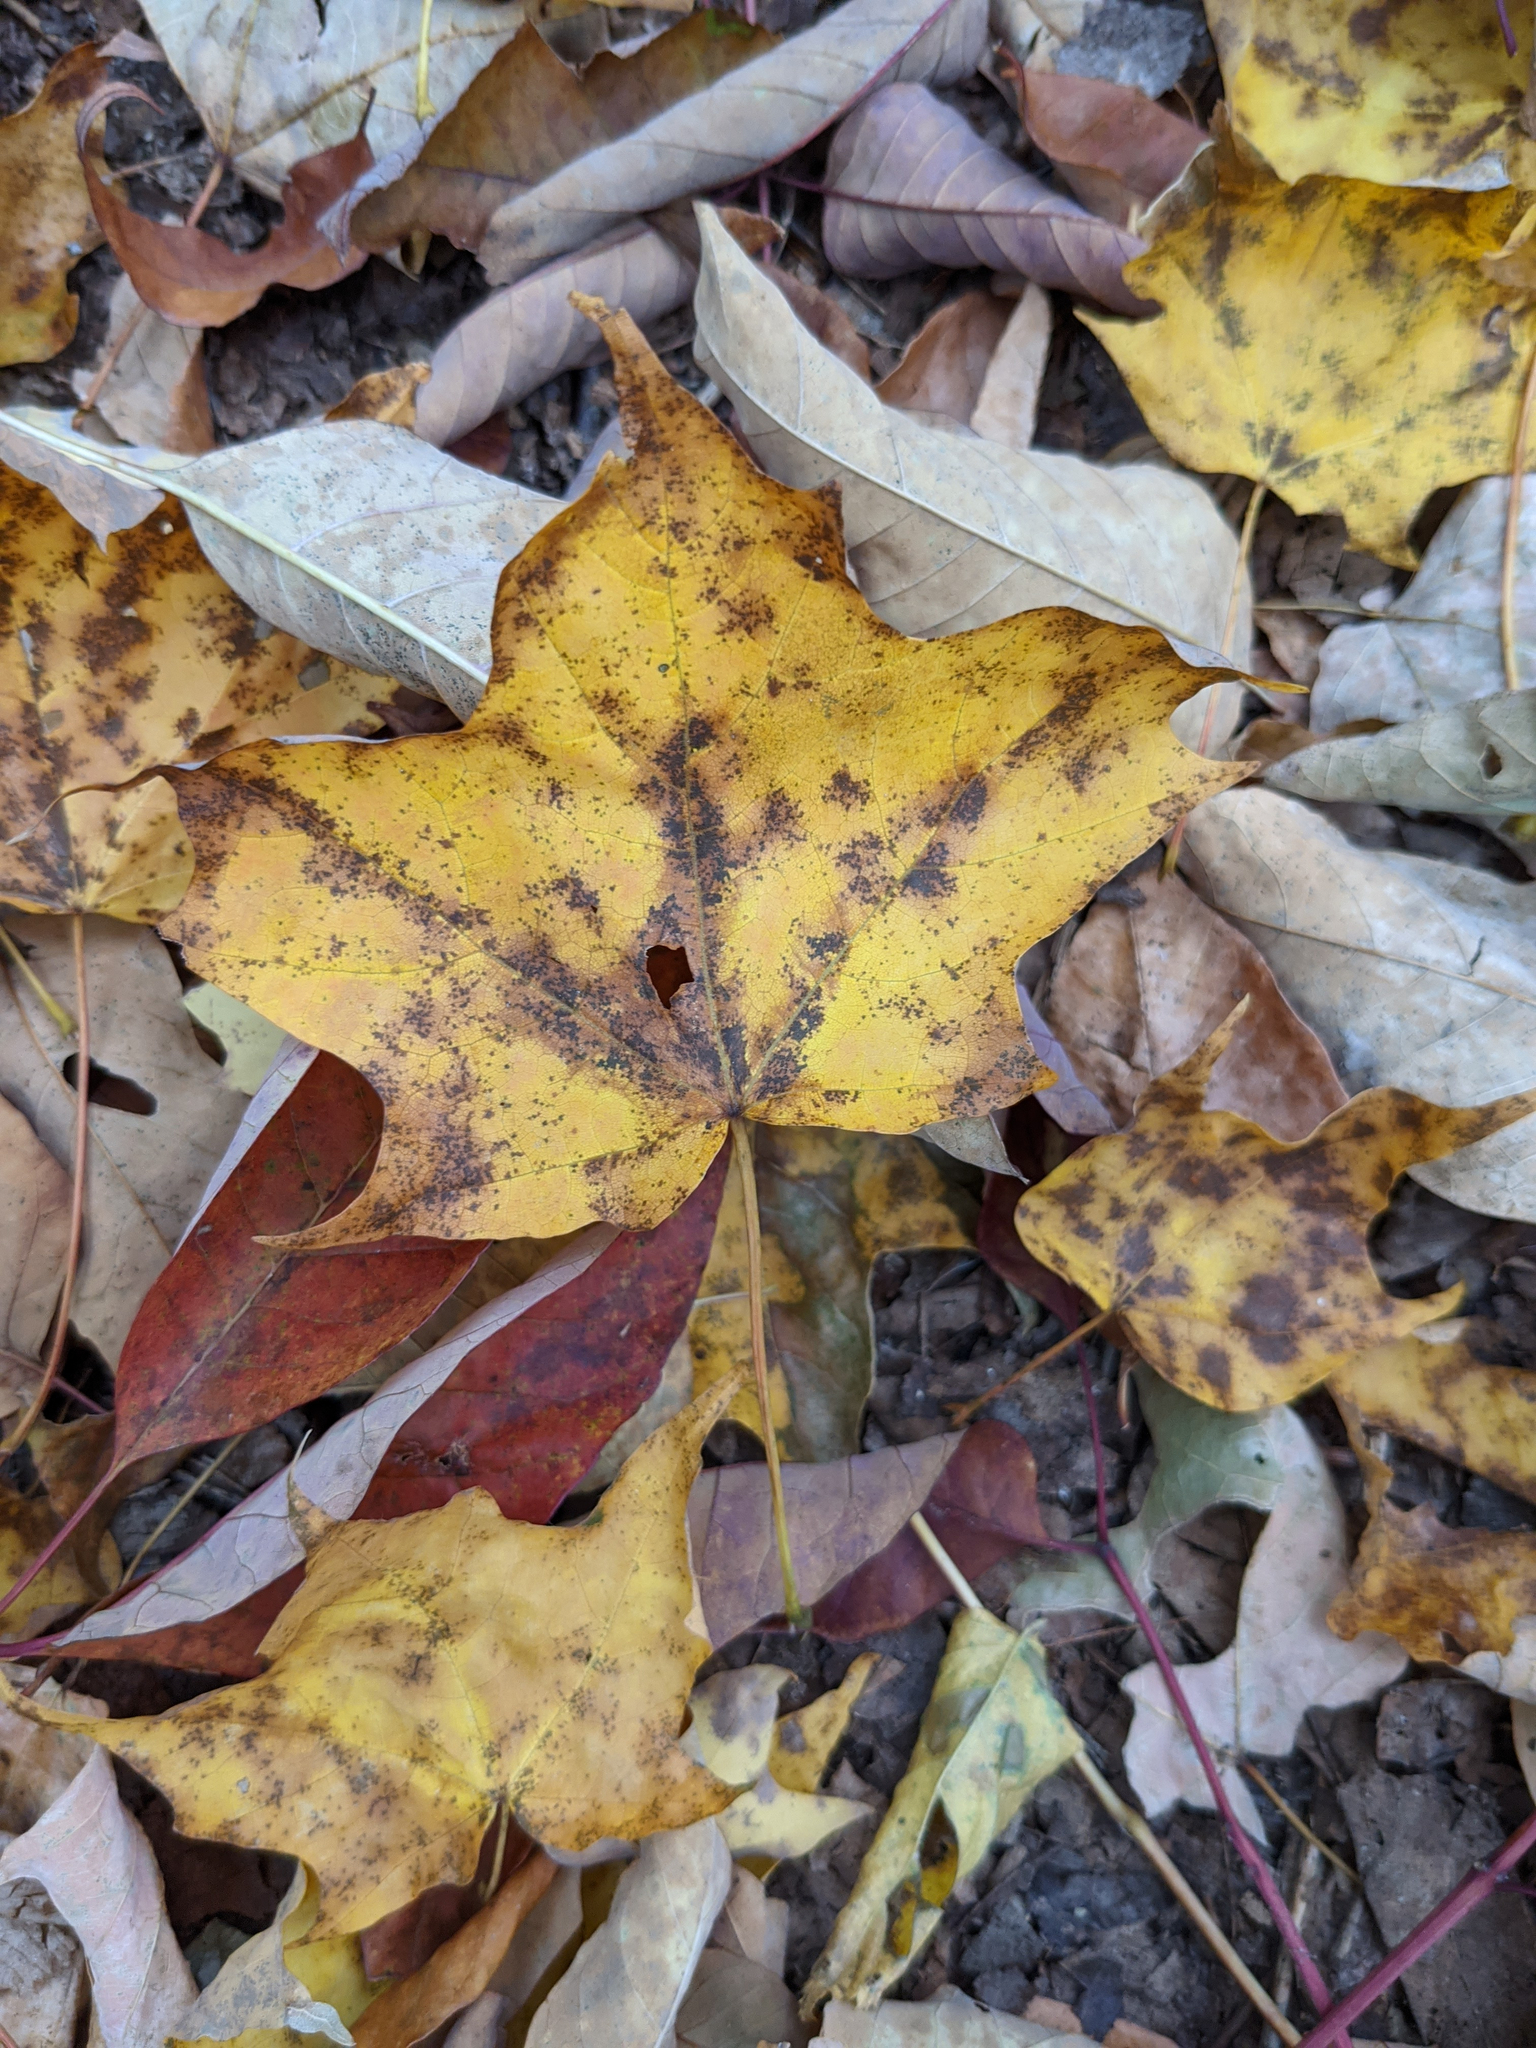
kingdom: Plantae
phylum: Tracheophyta
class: Magnoliopsida
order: Sapindales
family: Sapindaceae
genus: Acer
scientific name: Acer saccharum
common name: Sugar maple
